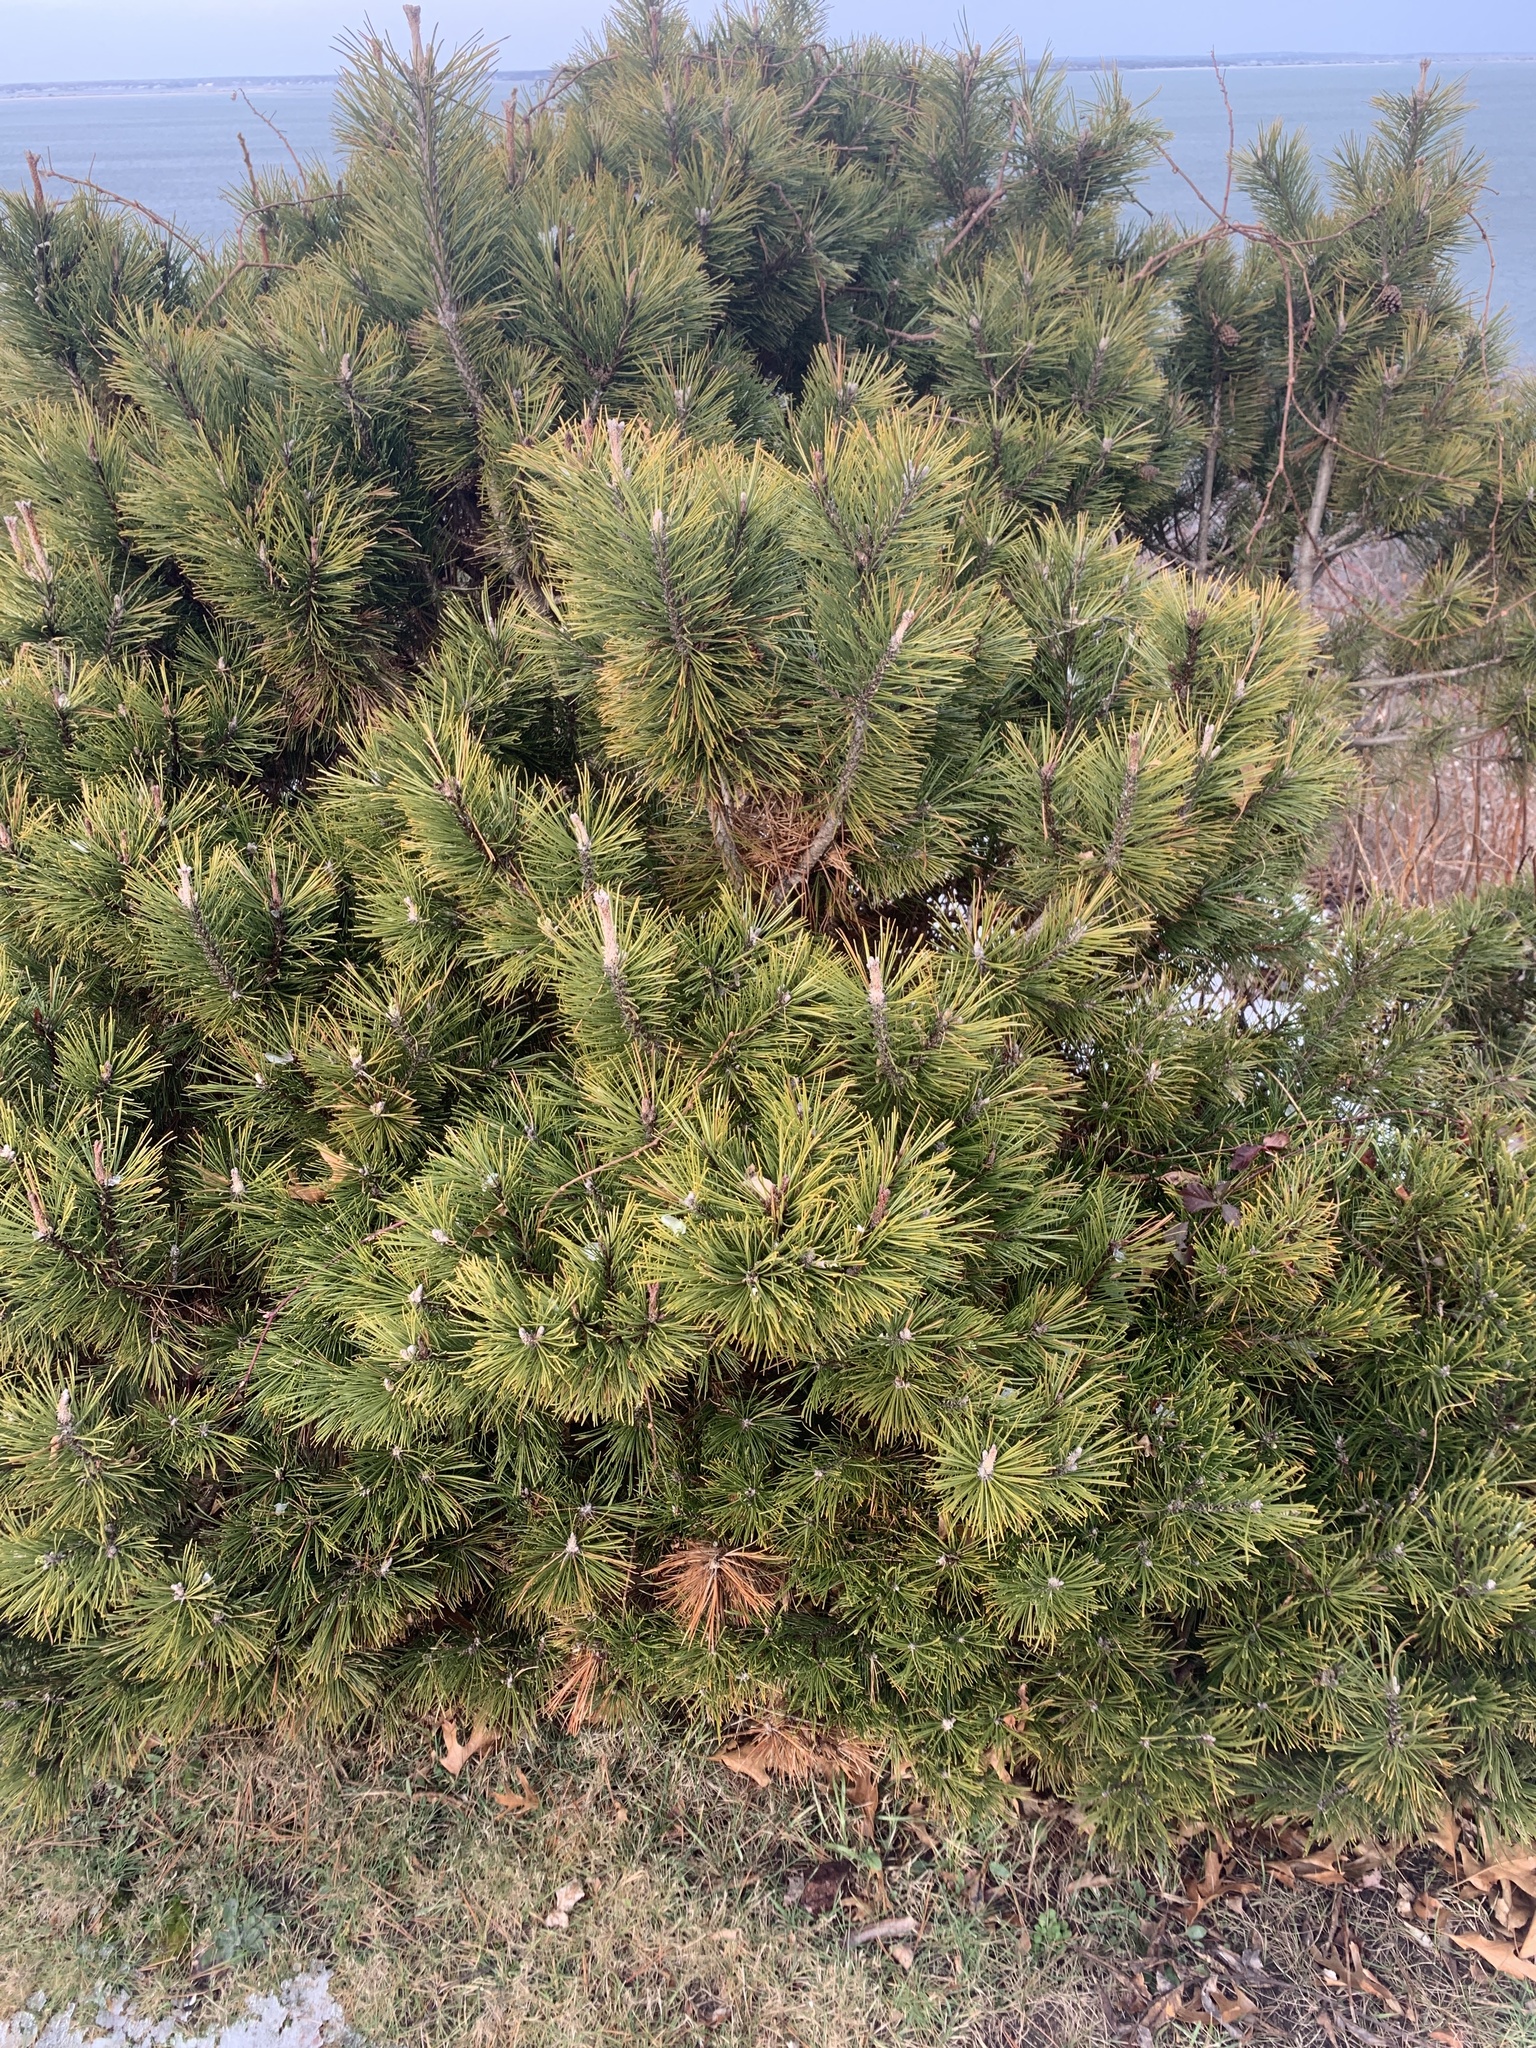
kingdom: Plantae
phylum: Tracheophyta
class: Pinopsida
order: Pinales
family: Pinaceae
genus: Pinus
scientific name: Pinus rigida
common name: Pitch pine
